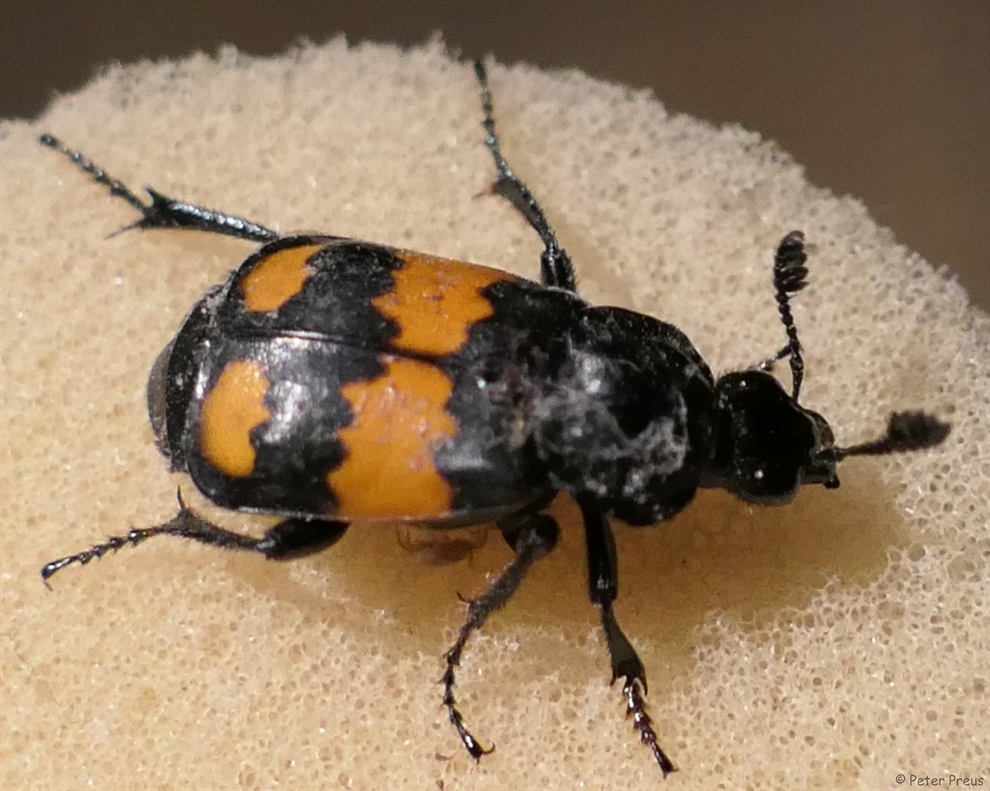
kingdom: Animalia
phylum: Arthropoda
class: Insecta
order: Coleoptera
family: Staphylinidae
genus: Nicrophorus
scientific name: Nicrophorus vespilloides
